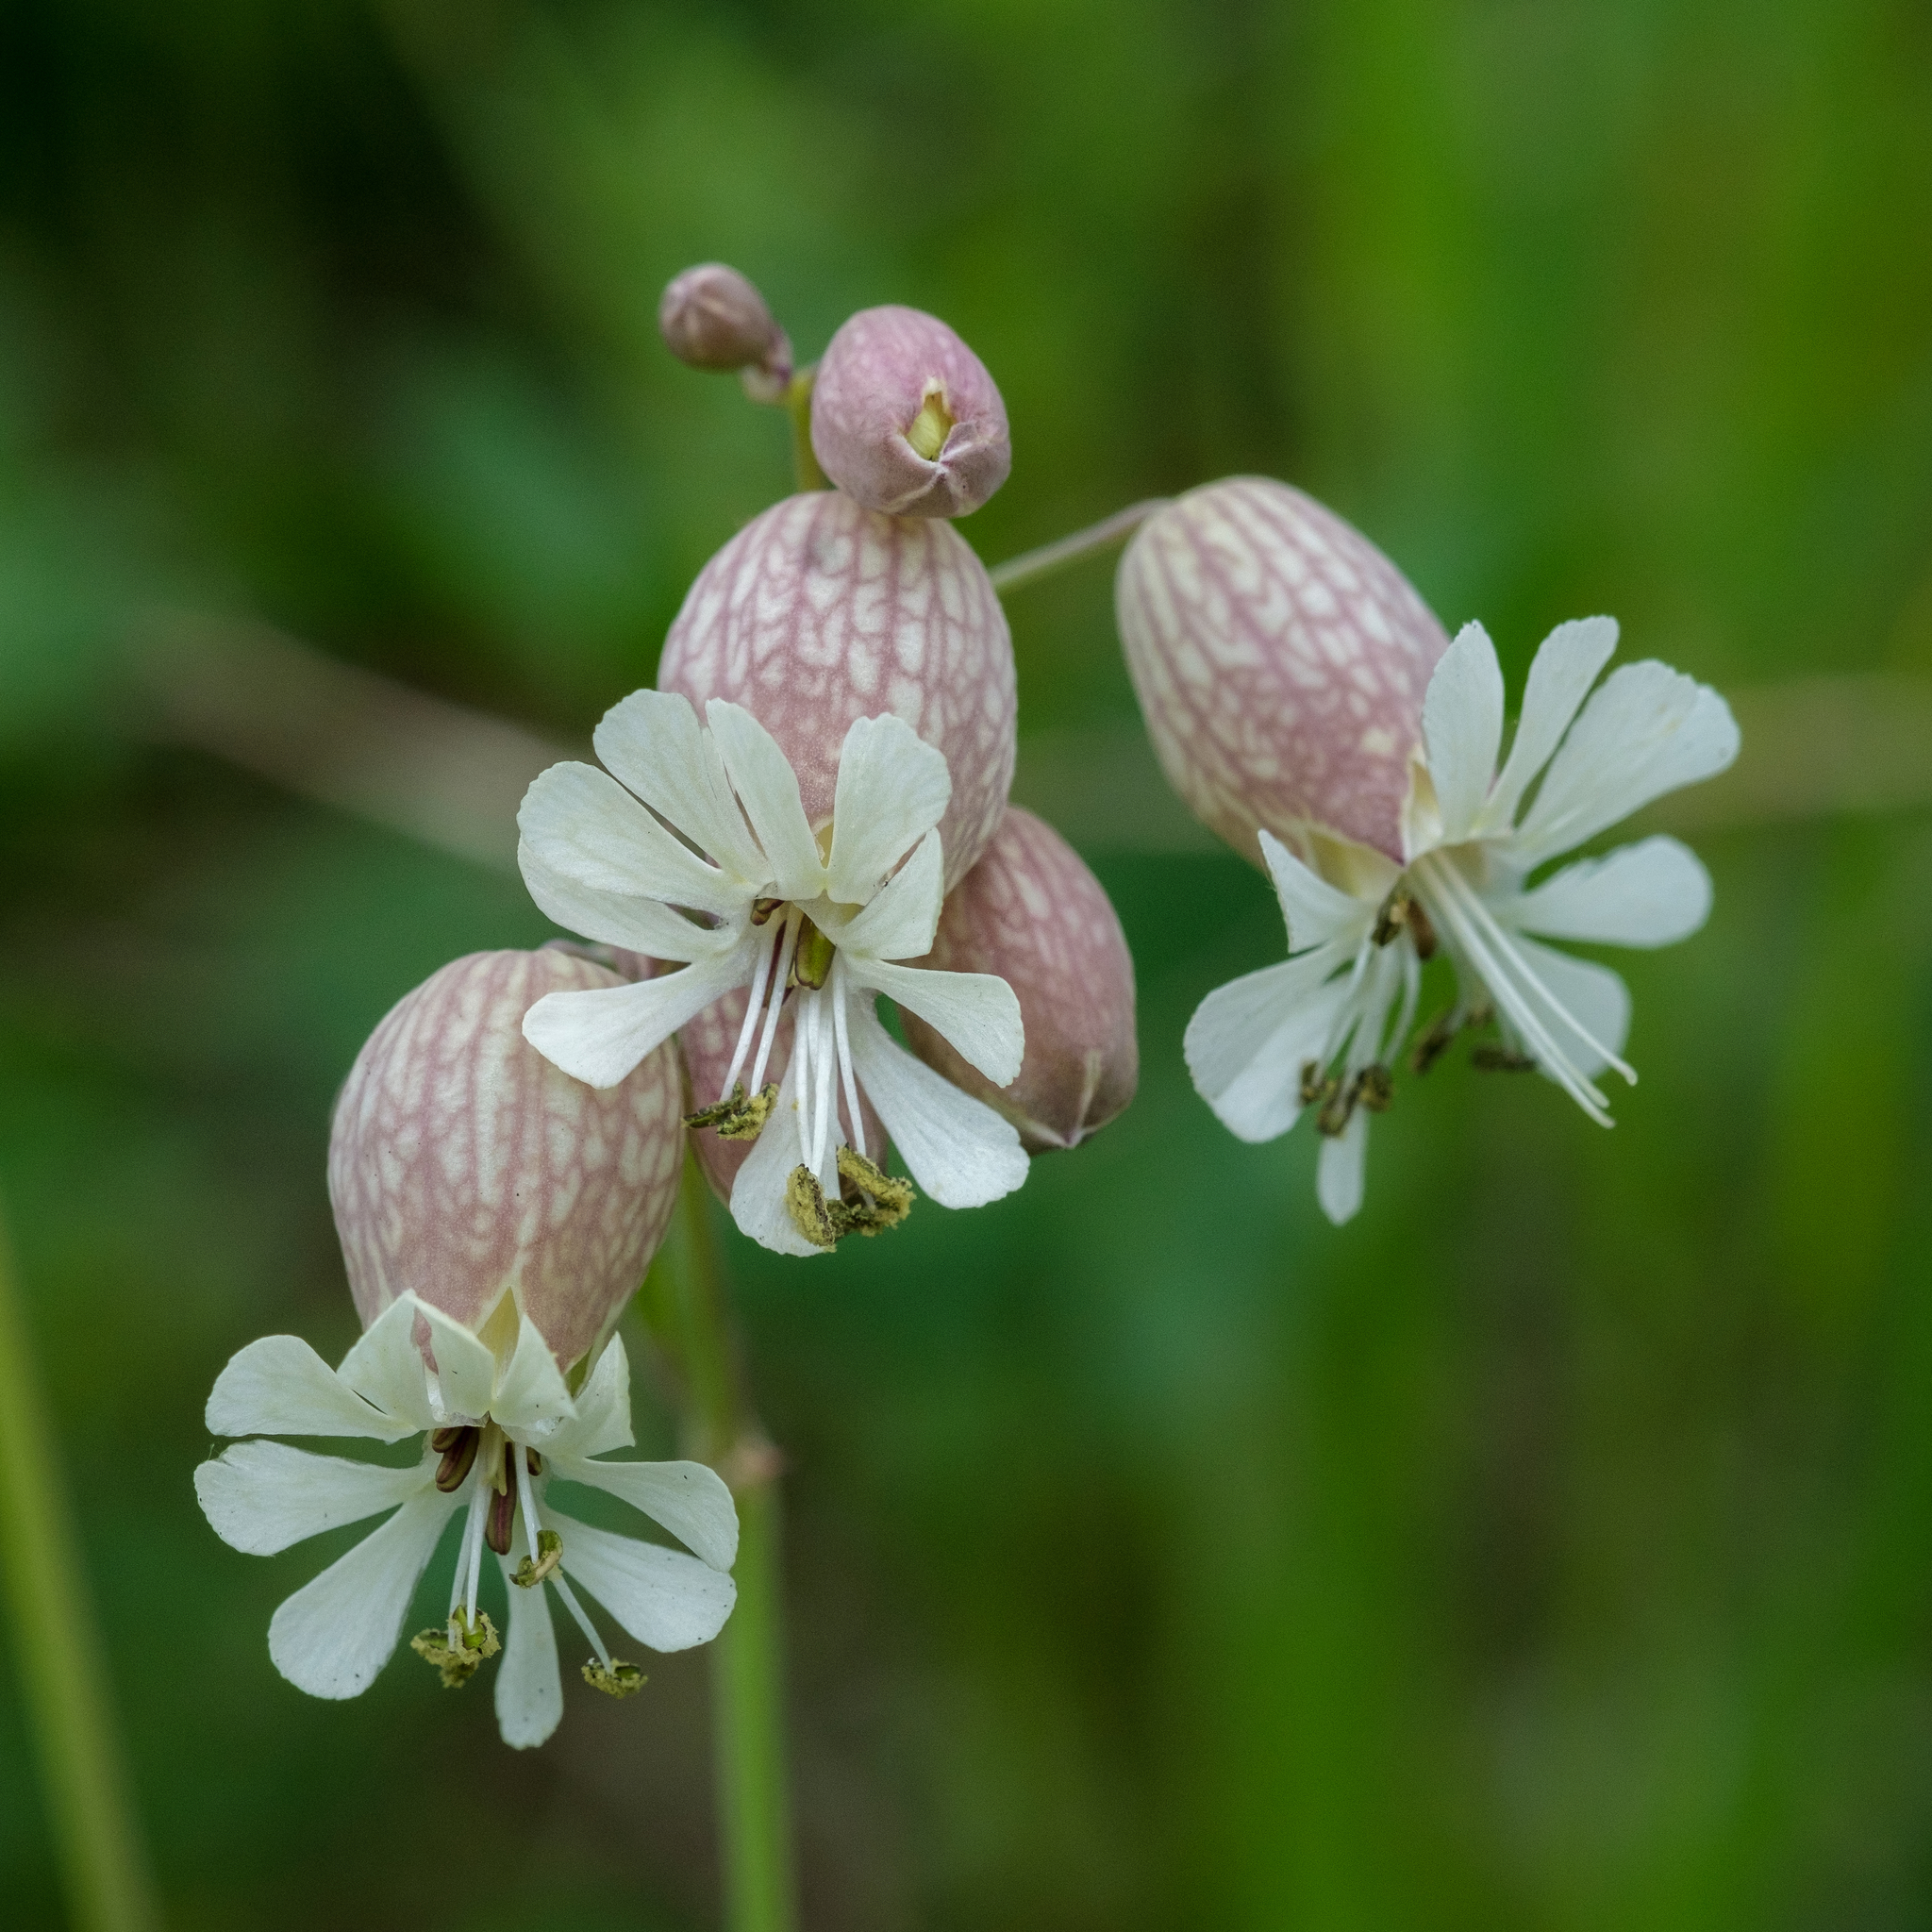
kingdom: Plantae
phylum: Tracheophyta
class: Magnoliopsida
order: Caryophyllales
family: Caryophyllaceae
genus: Silene
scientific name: Silene vulgaris
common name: Bladder campion
